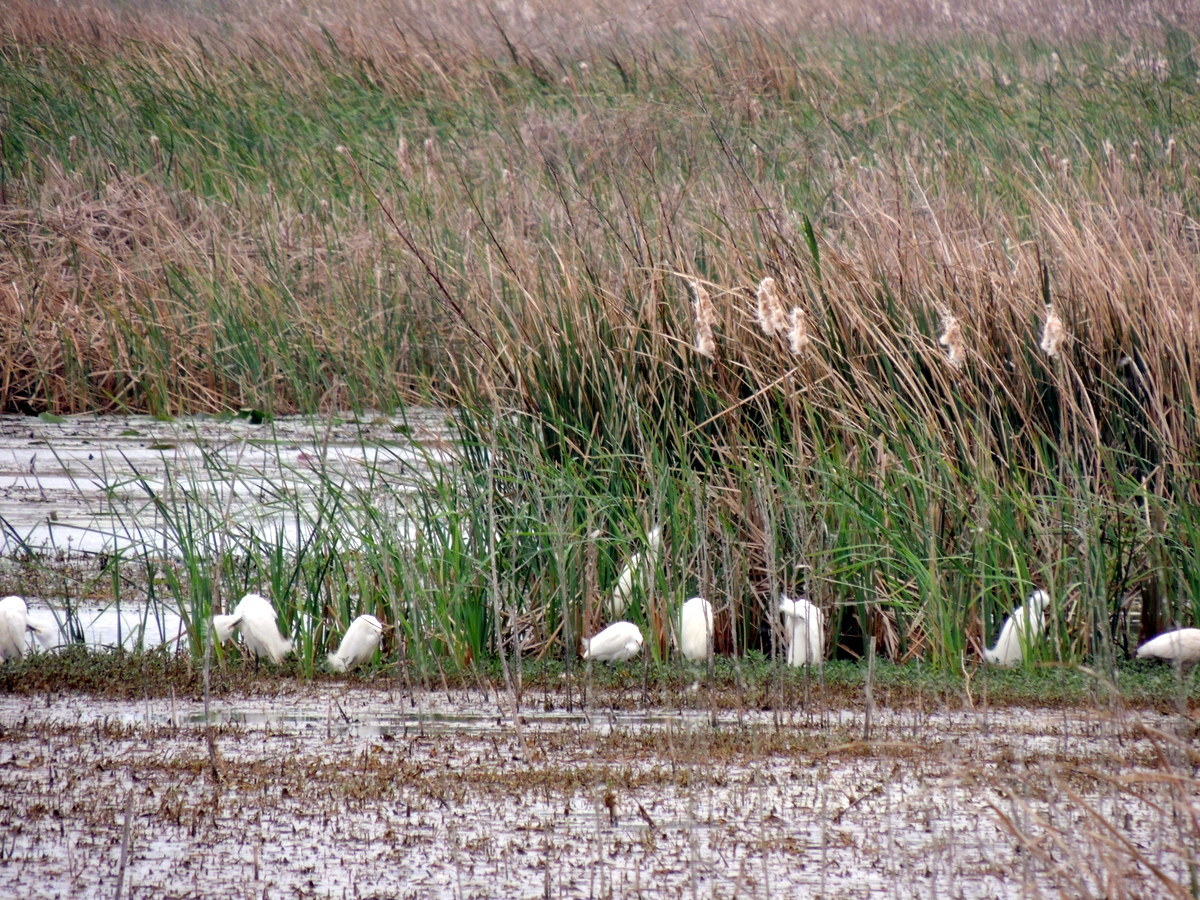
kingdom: Animalia
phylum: Chordata
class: Aves
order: Pelecaniformes
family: Threskiornithidae
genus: Eudocimus
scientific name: Eudocimus albus
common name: White ibis
